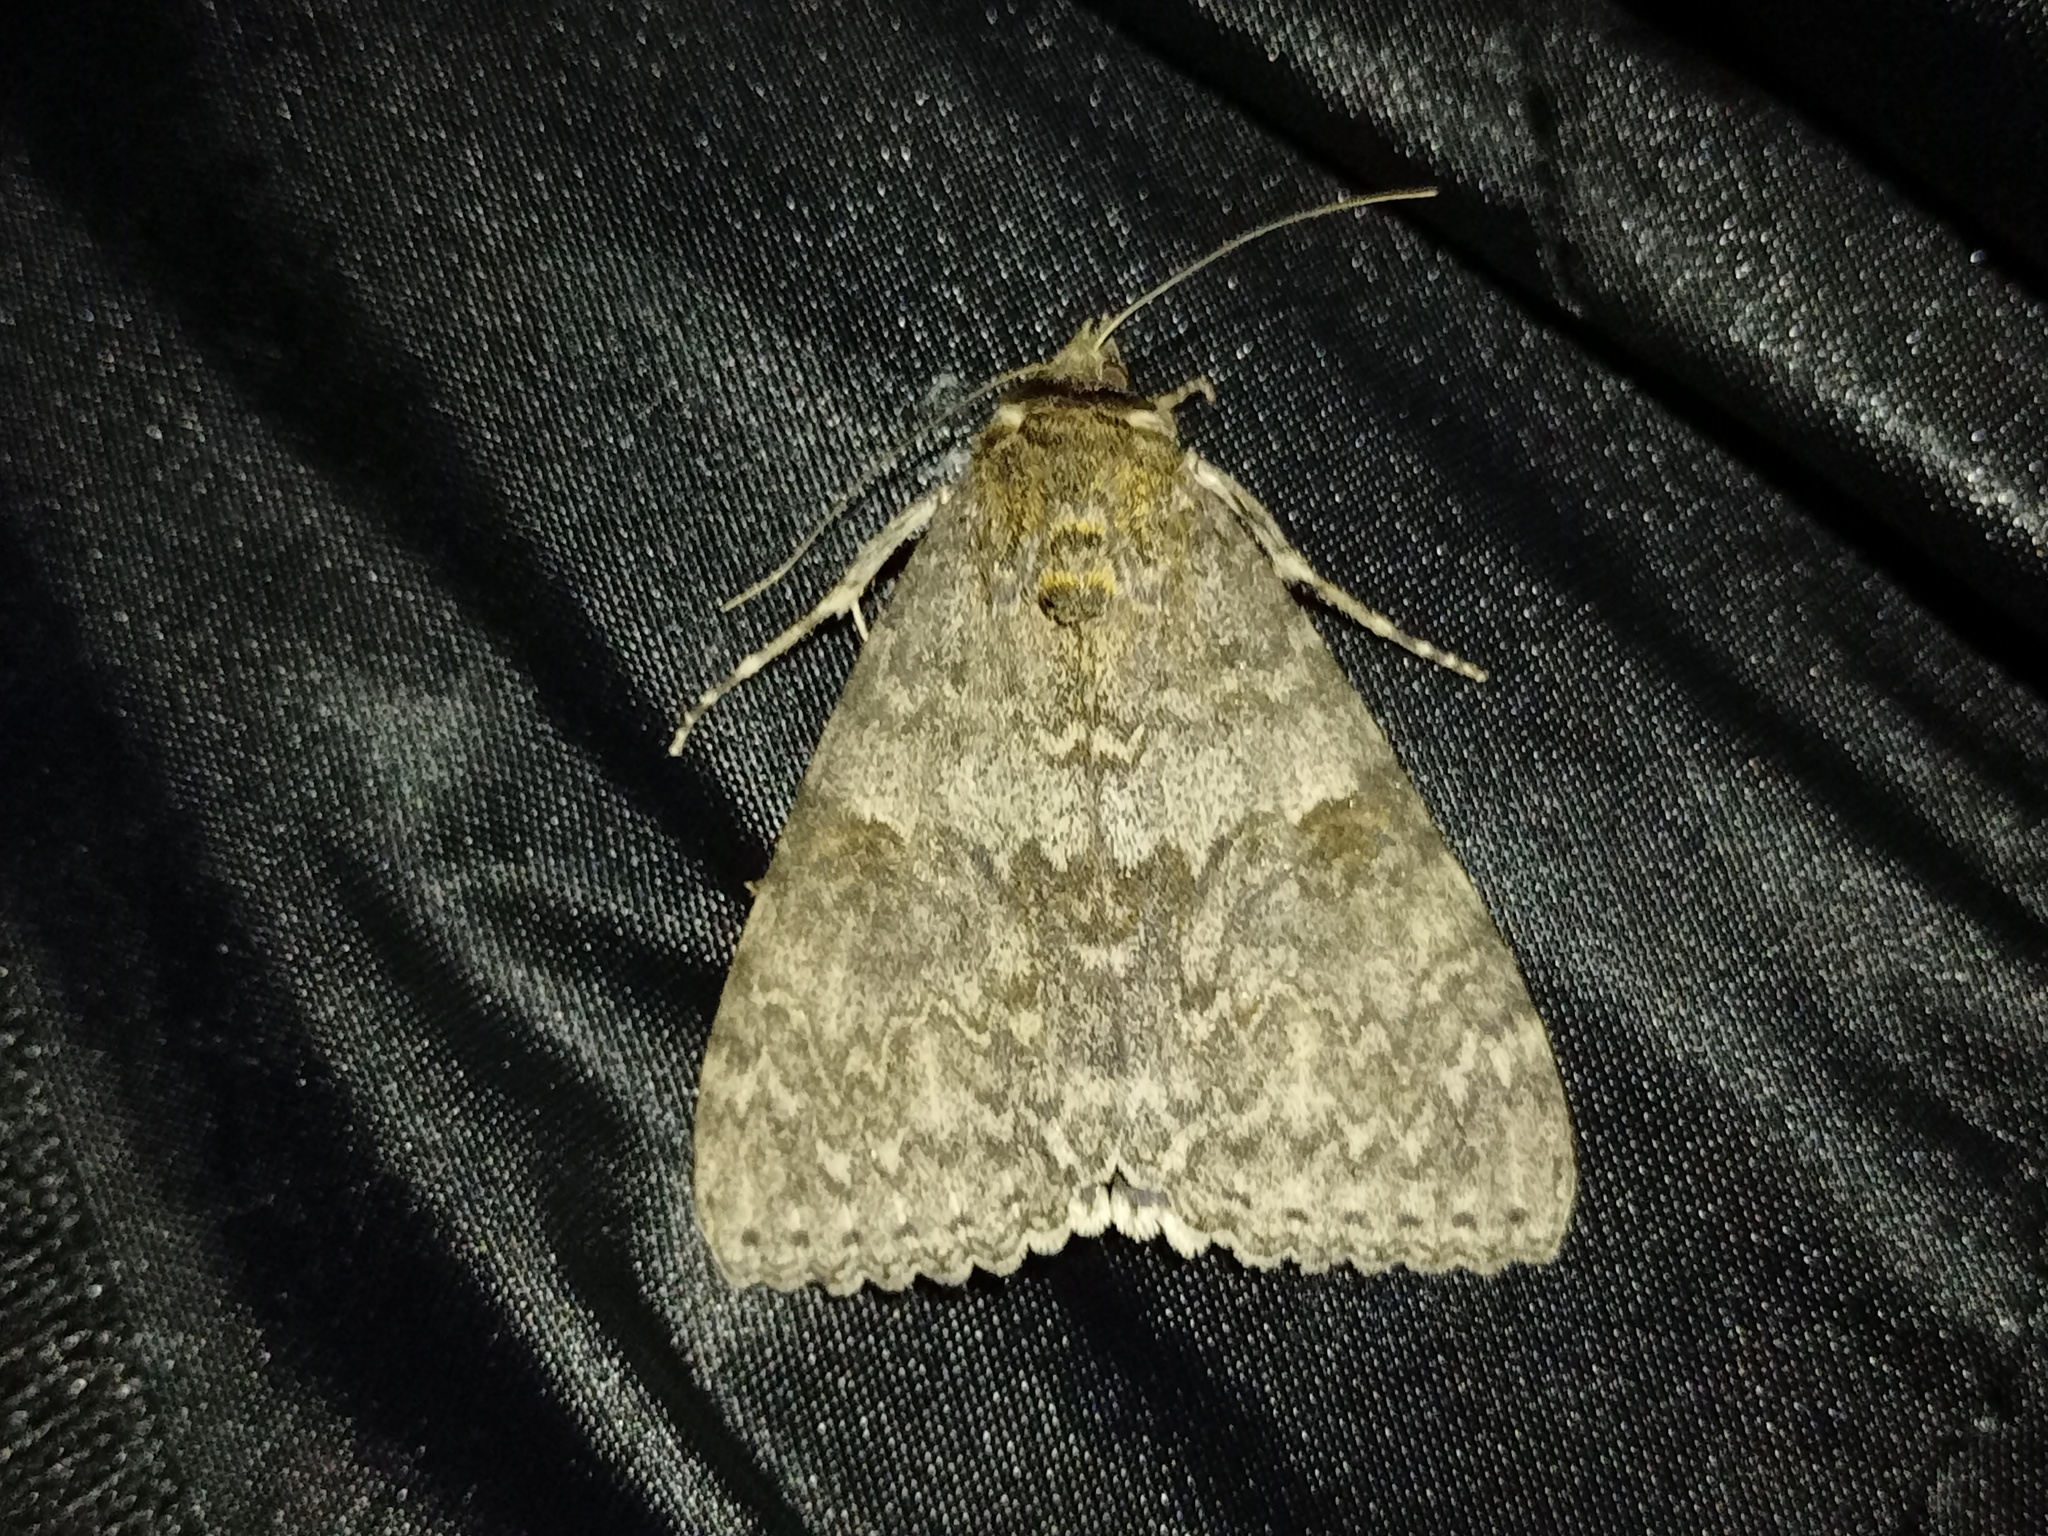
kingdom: Animalia
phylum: Arthropoda
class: Insecta
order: Lepidoptera
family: Erebidae
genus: Catocala
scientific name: Catocala nupta
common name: Red underwing
